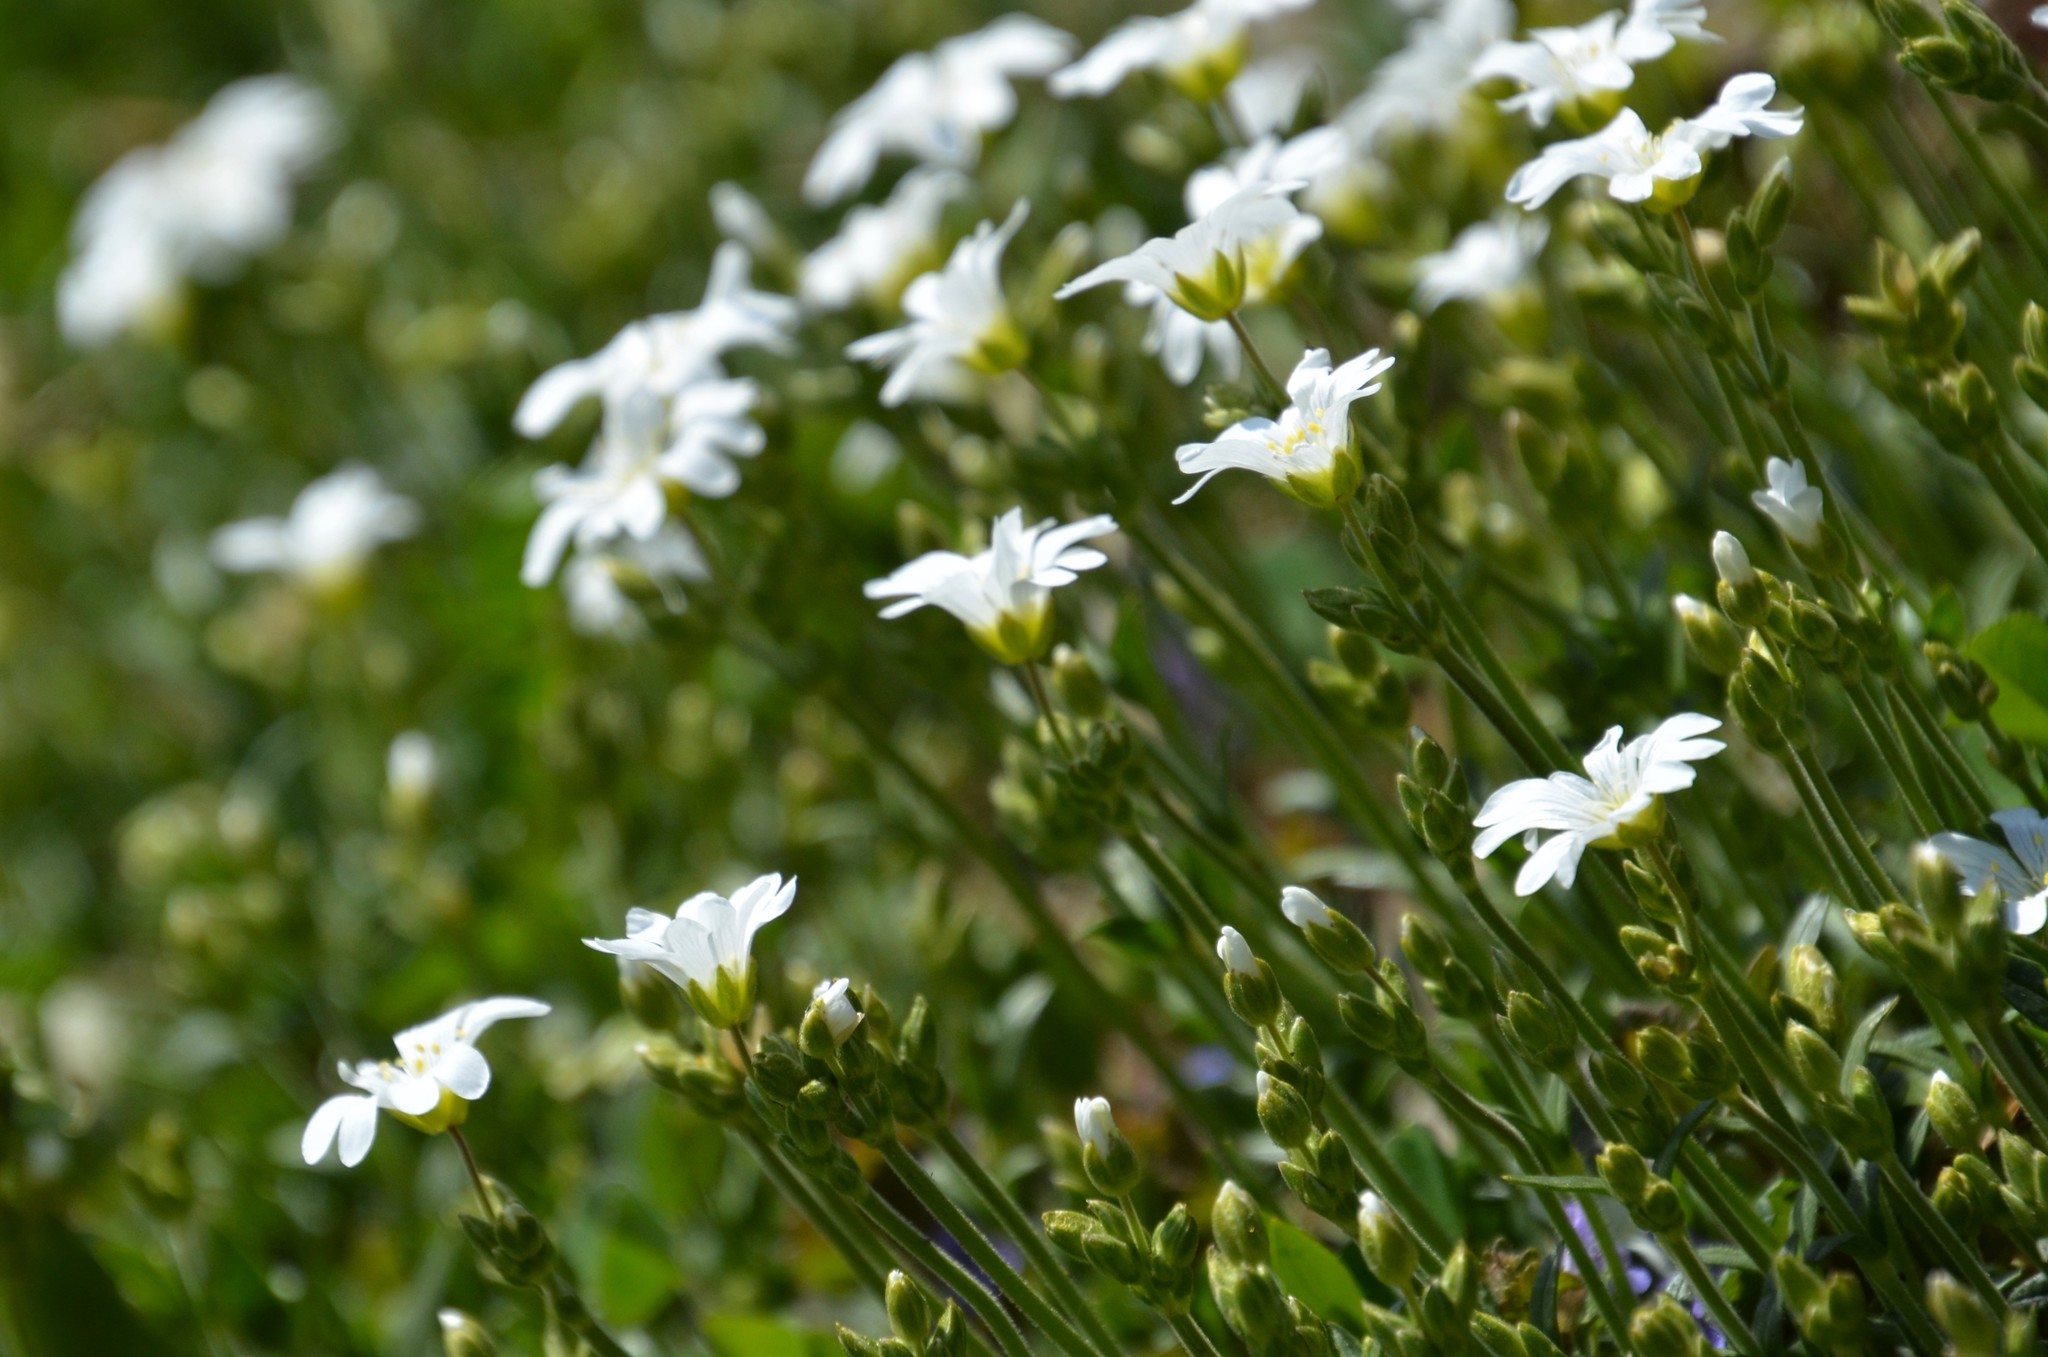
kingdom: Plantae
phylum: Tracheophyta
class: Magnoliopsida
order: Caryophyllales
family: Caryophyllaceae
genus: Cerastium
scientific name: Cerastium arvense
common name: Field mouse-ear
